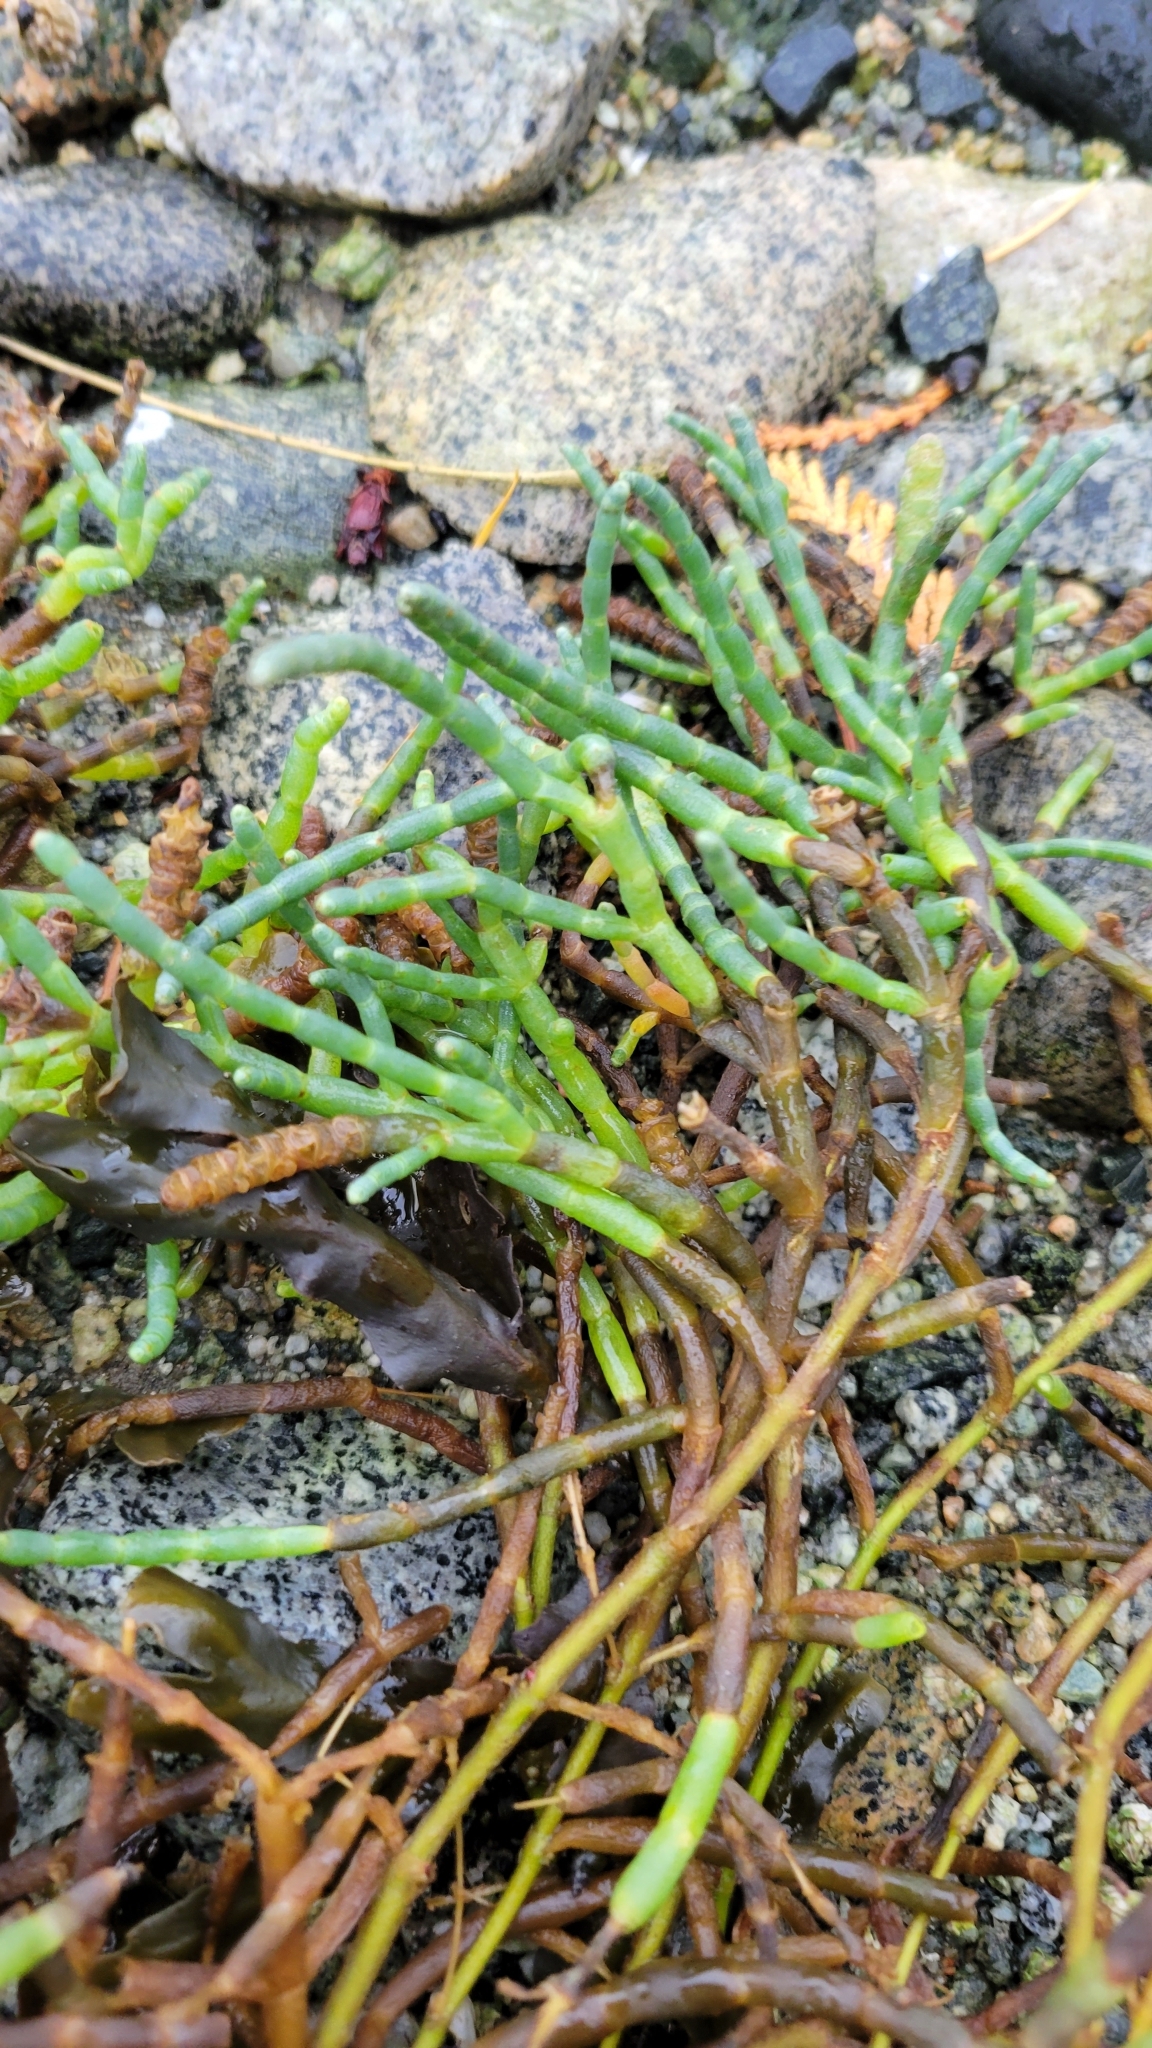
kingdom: Plantae
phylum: Tracheophyta
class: Magnoliopsida
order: Caryophyllales
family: Amaranthaceae
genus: Salicornia
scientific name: Salicornia pacifica
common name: Pacific glasswort
